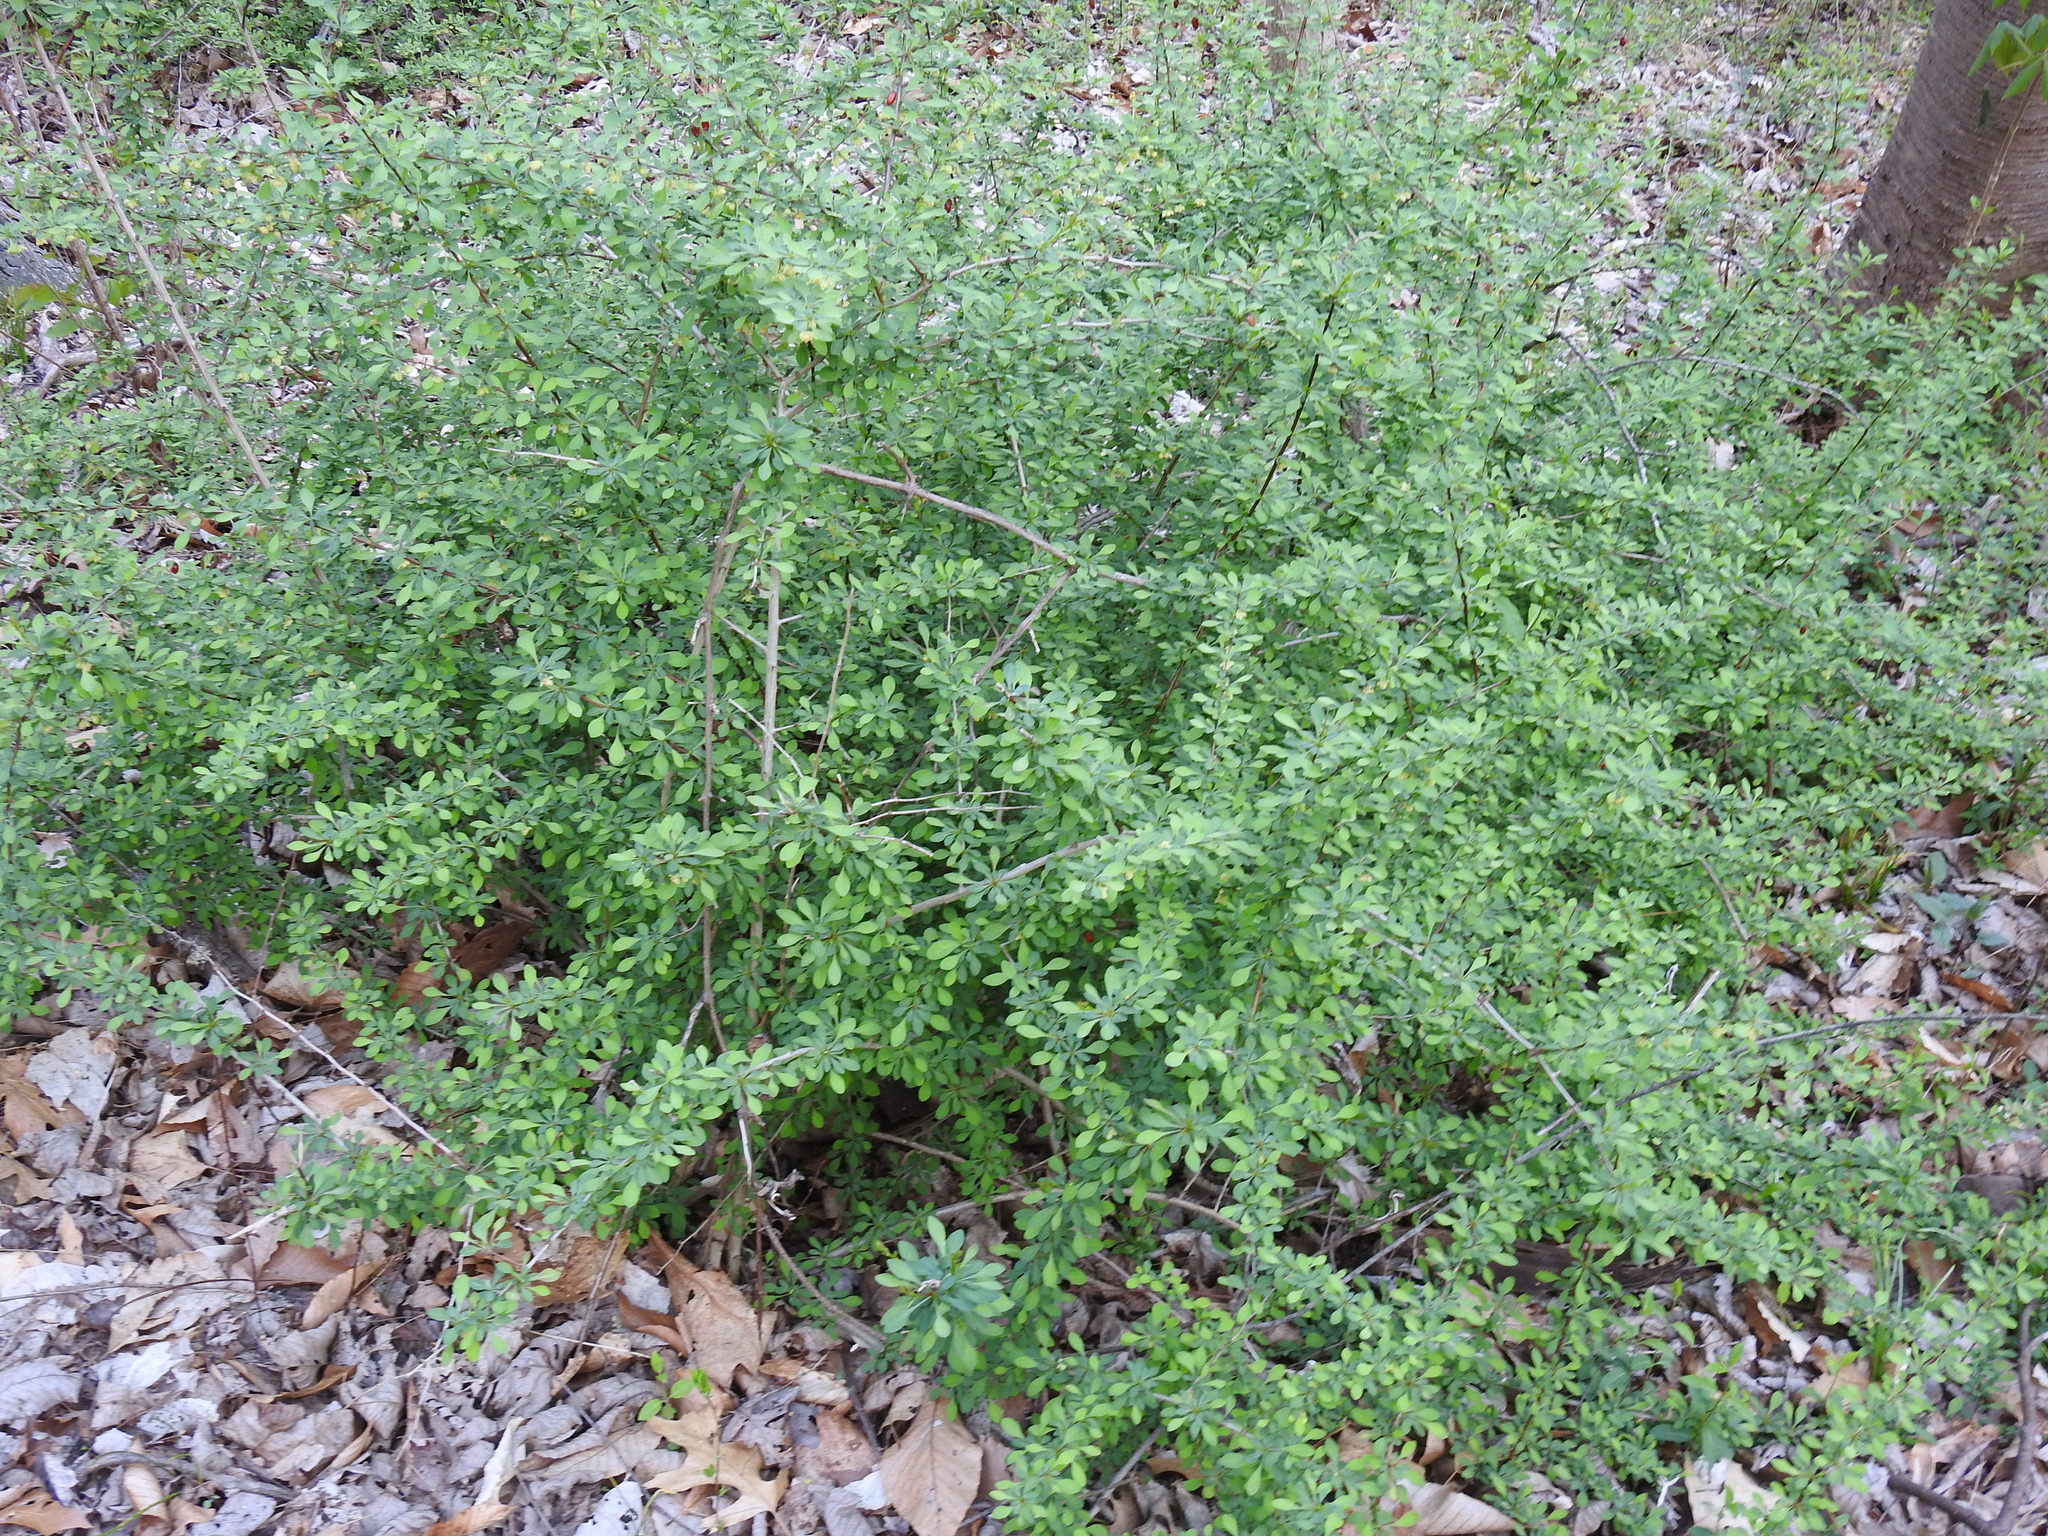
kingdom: Plantae
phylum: Tracheophyta
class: Magnoliopsida
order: Ranunculales
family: Berberidaceae
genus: Berberis
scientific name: Berberis thunbergii
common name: Japanese barberry
